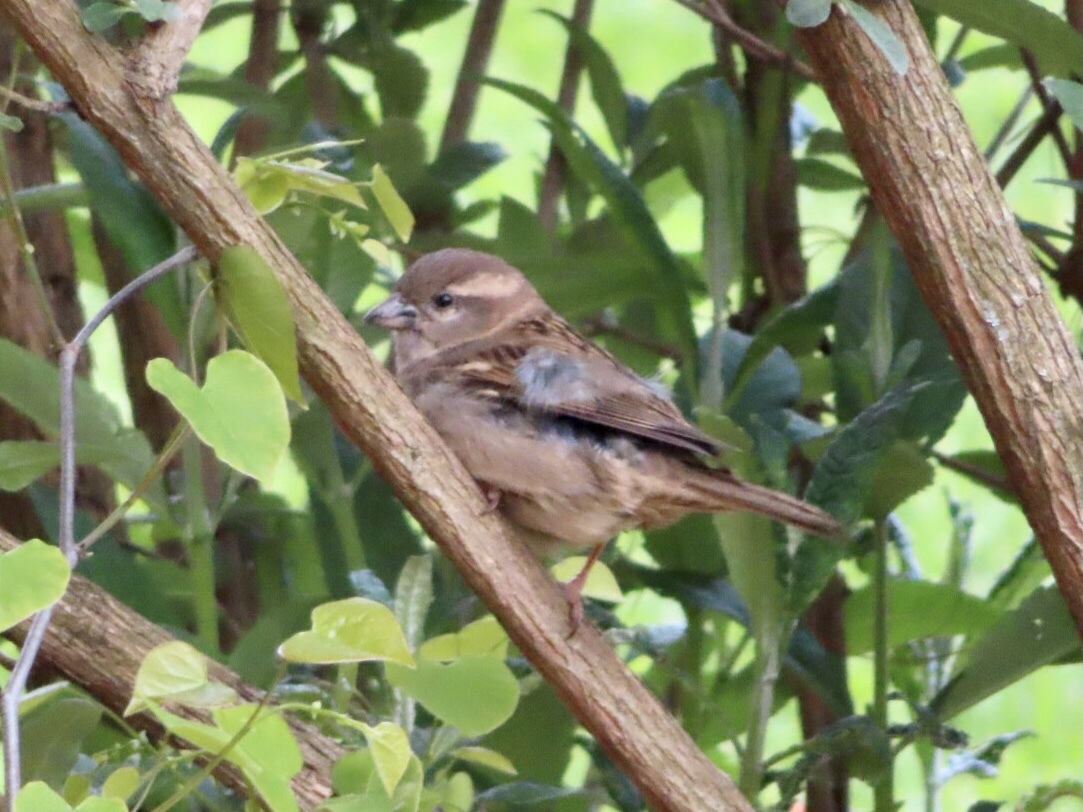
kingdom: Animalia
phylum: Chordata
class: Aves
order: Passeriformes
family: Passeridae
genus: Passer
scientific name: Passer domesticus
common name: House sparrow
